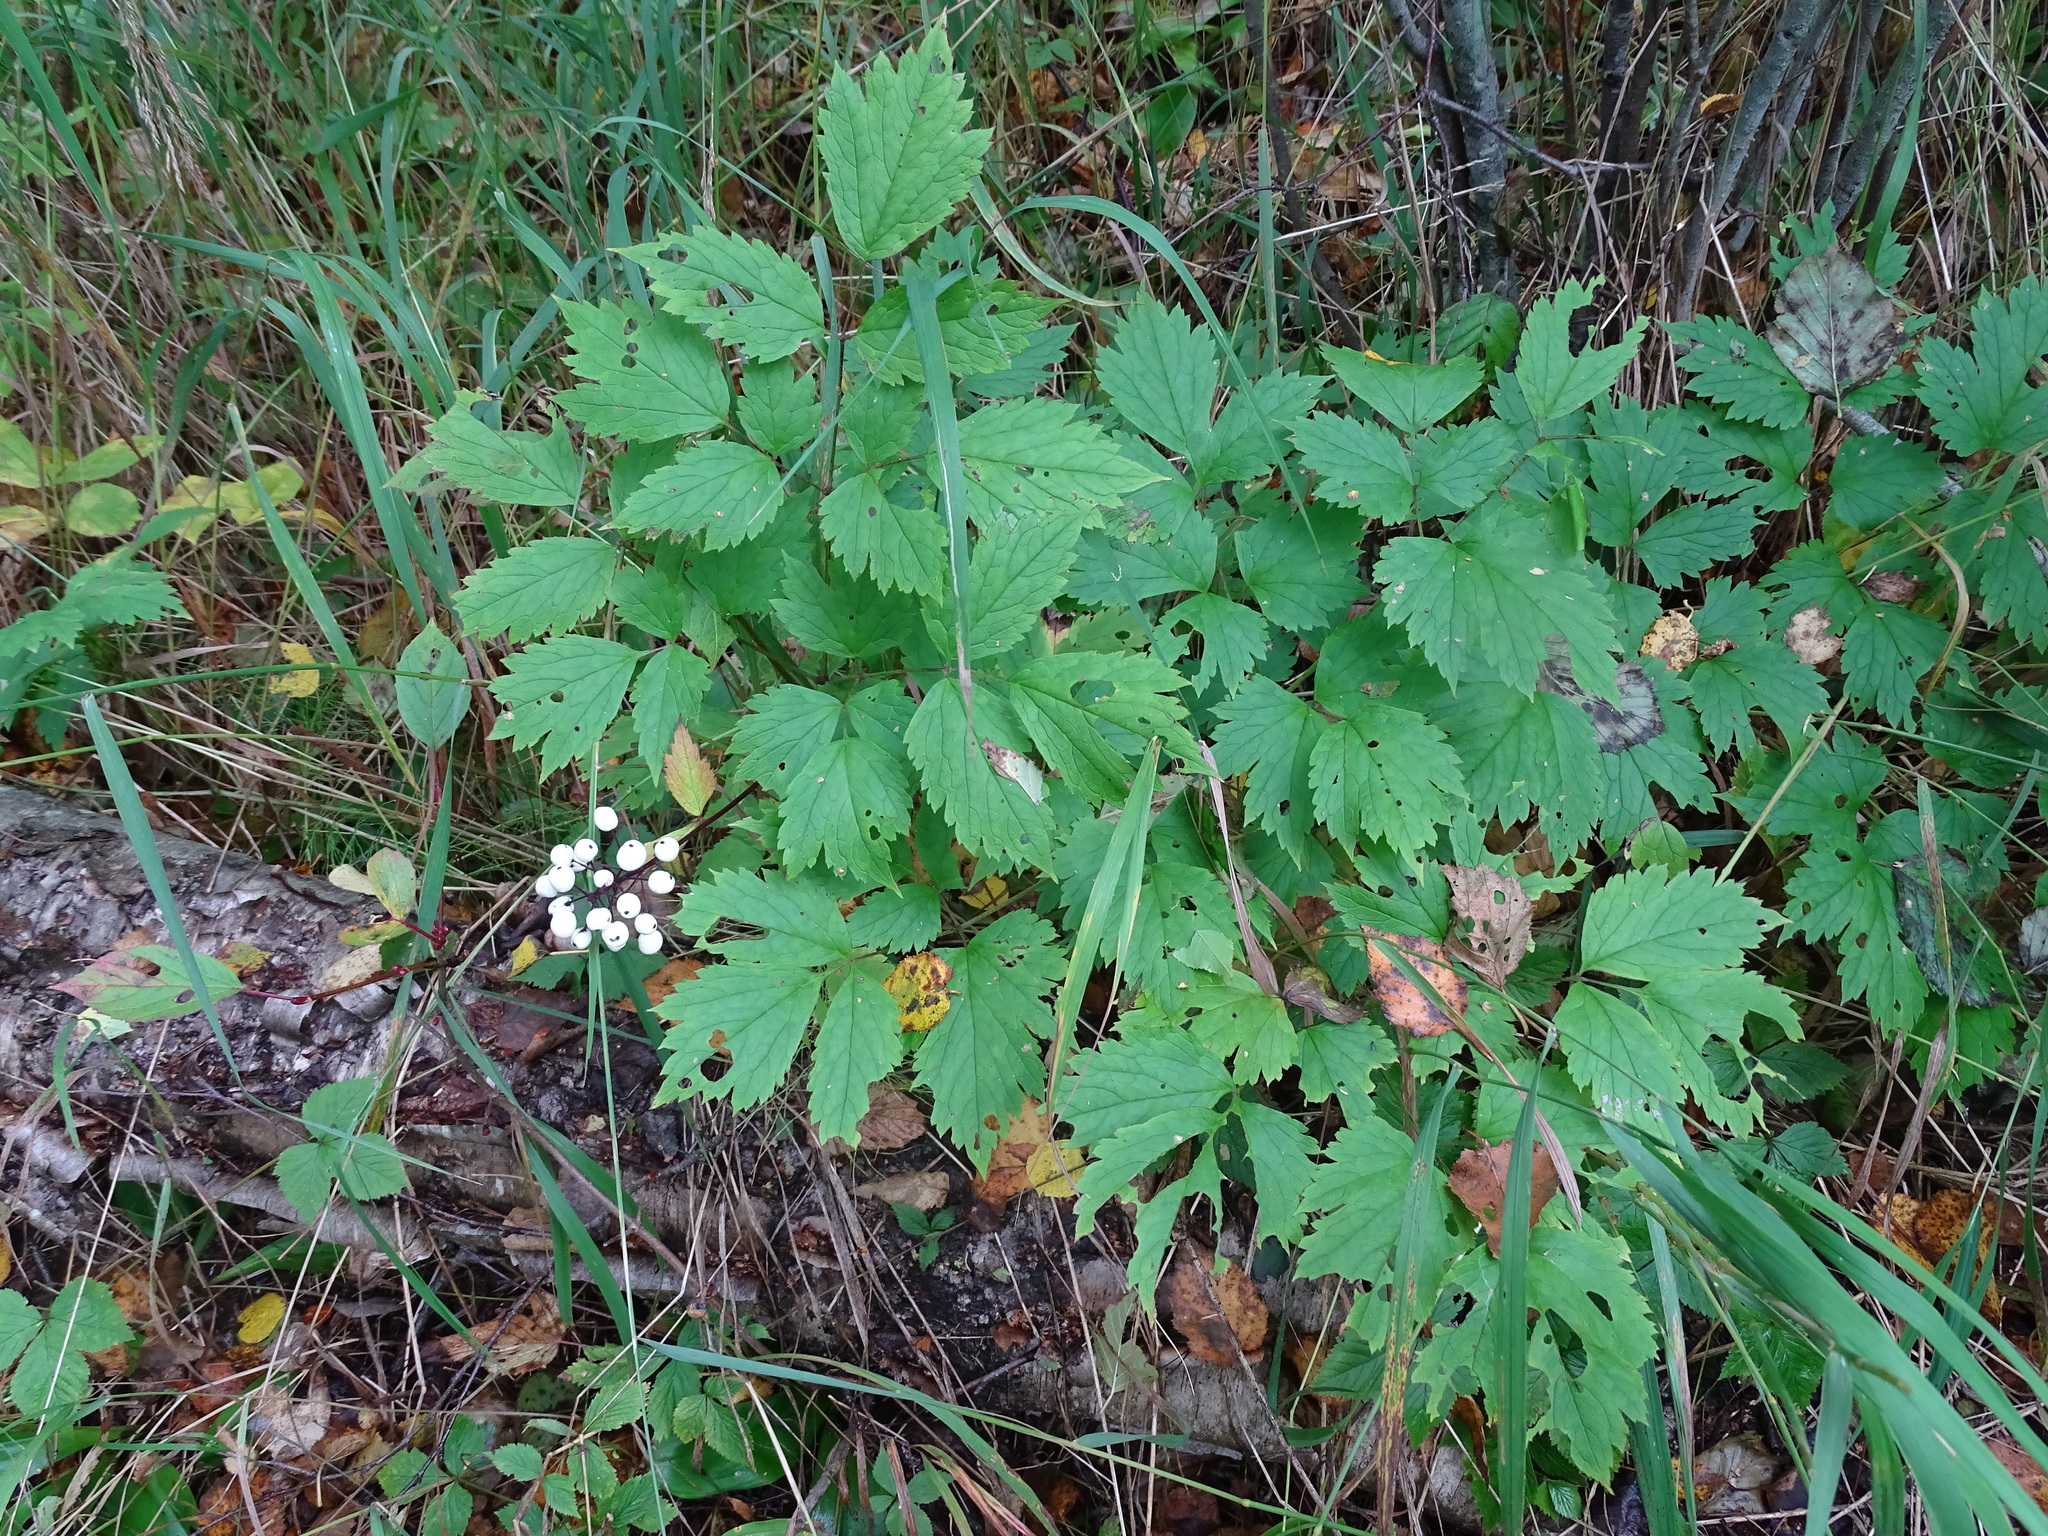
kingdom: Plantae
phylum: Tracheophyta
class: Magnoliopsida
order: Ranunculales
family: Ranunculaceae
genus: Actaea
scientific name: Actaea rubra
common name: Red baneberry
